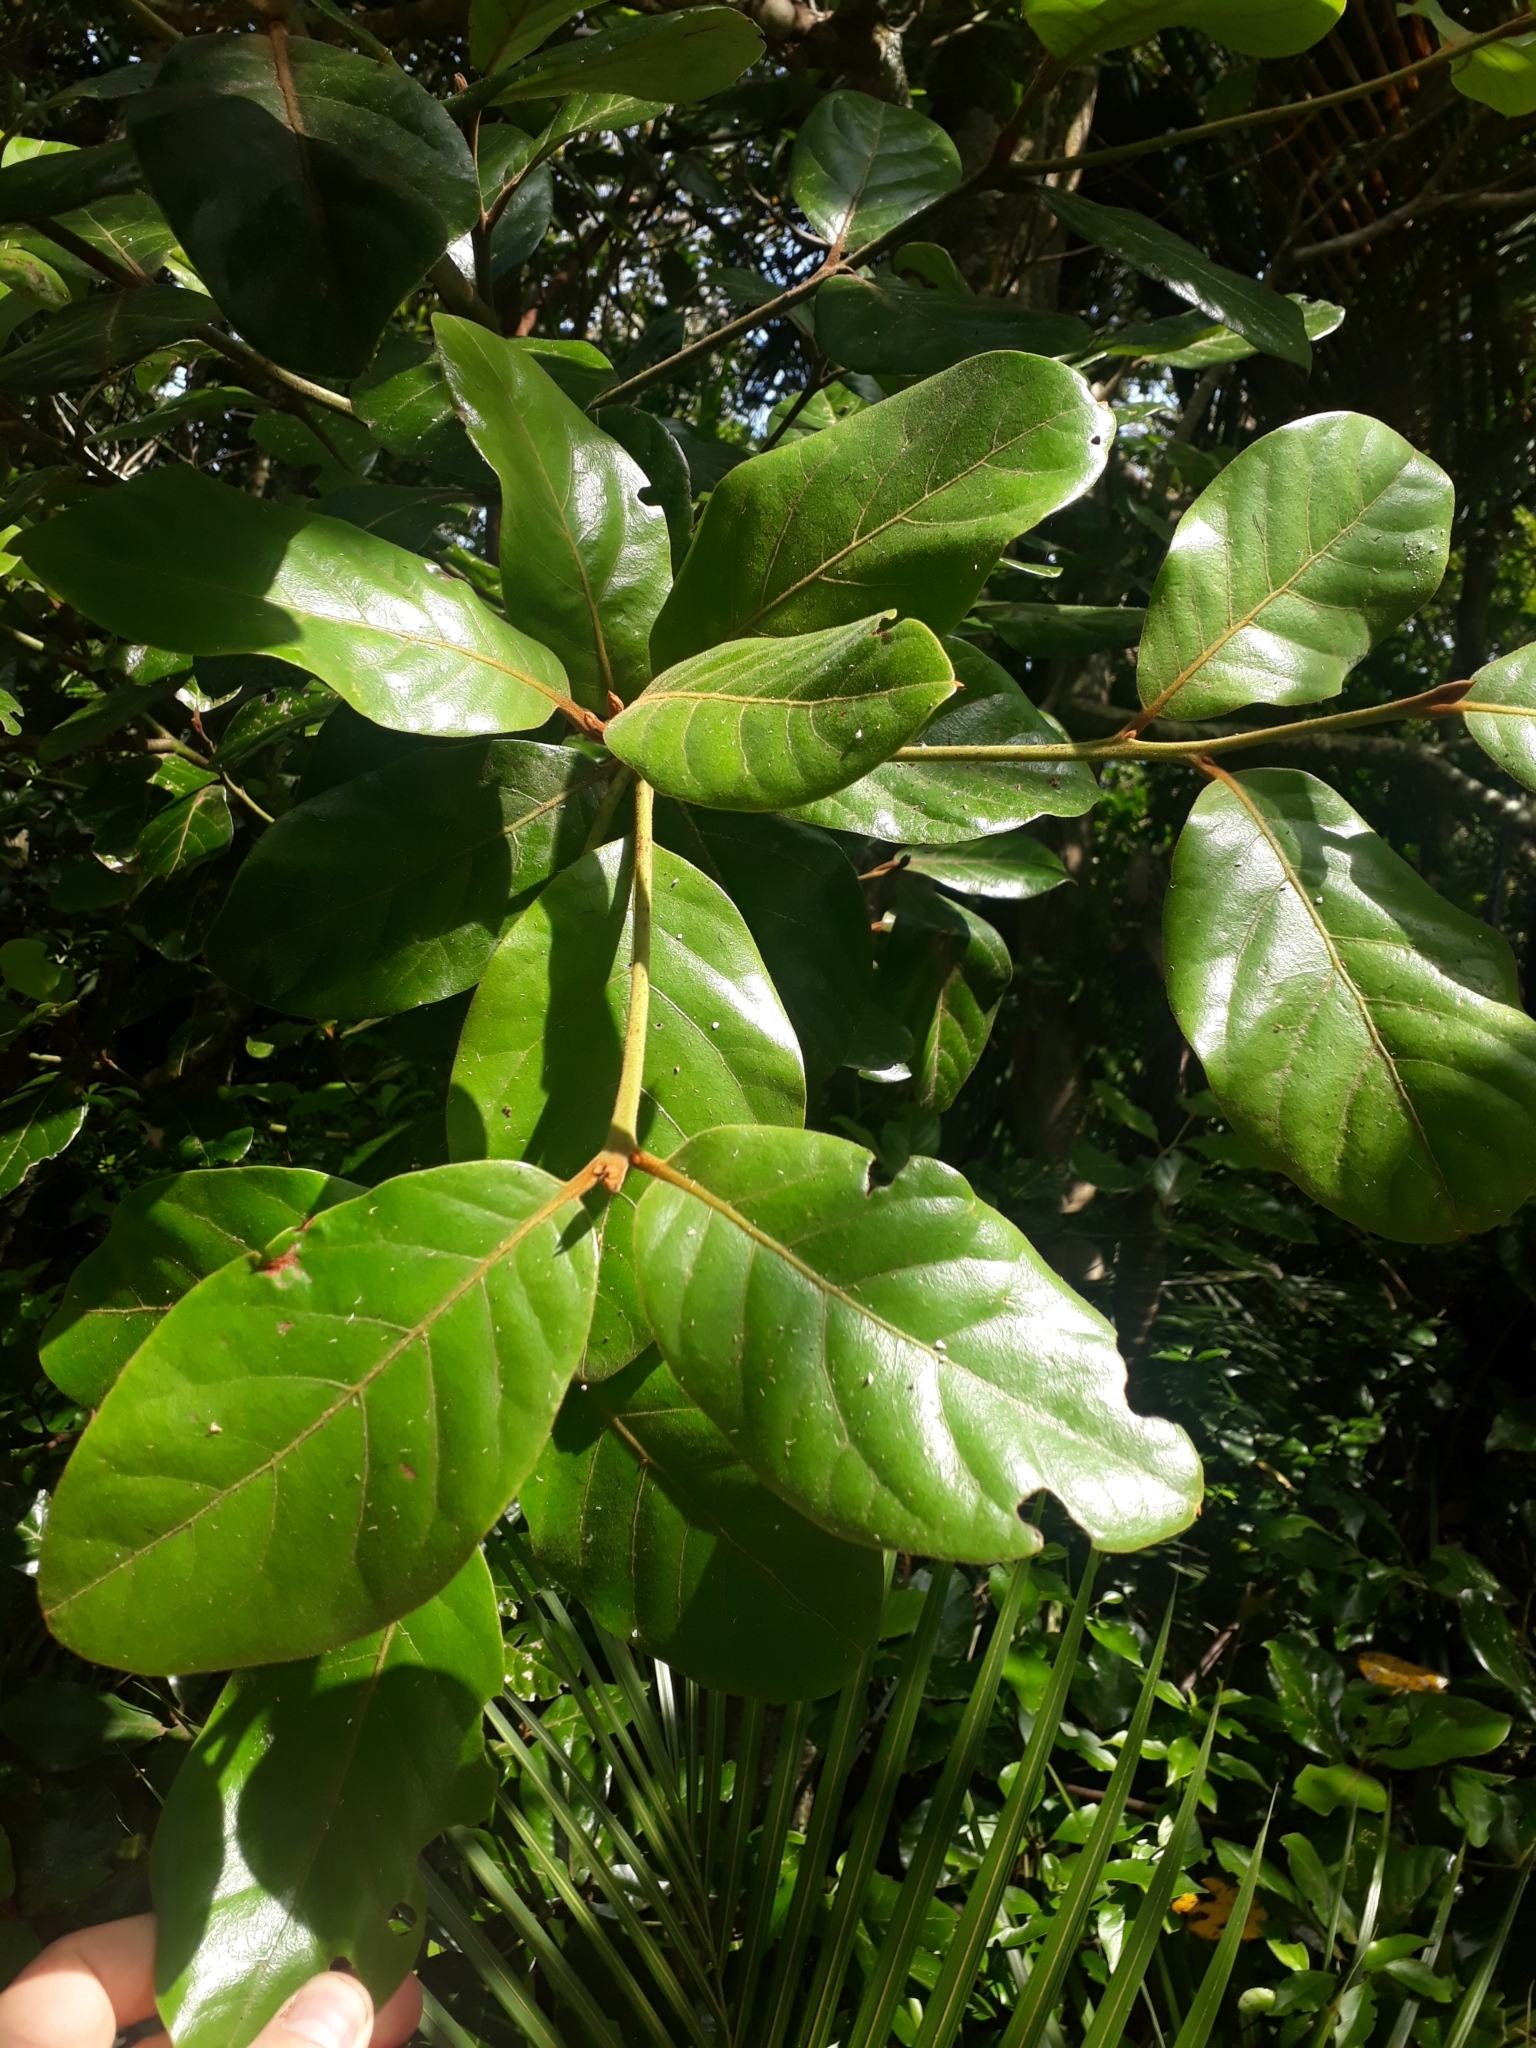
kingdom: Plantae
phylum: Tracheophyta
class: Magnoliopsida
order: Laurales
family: Lauraceae
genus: Beilschmiedia
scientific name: Beilschmiedia tarairi
